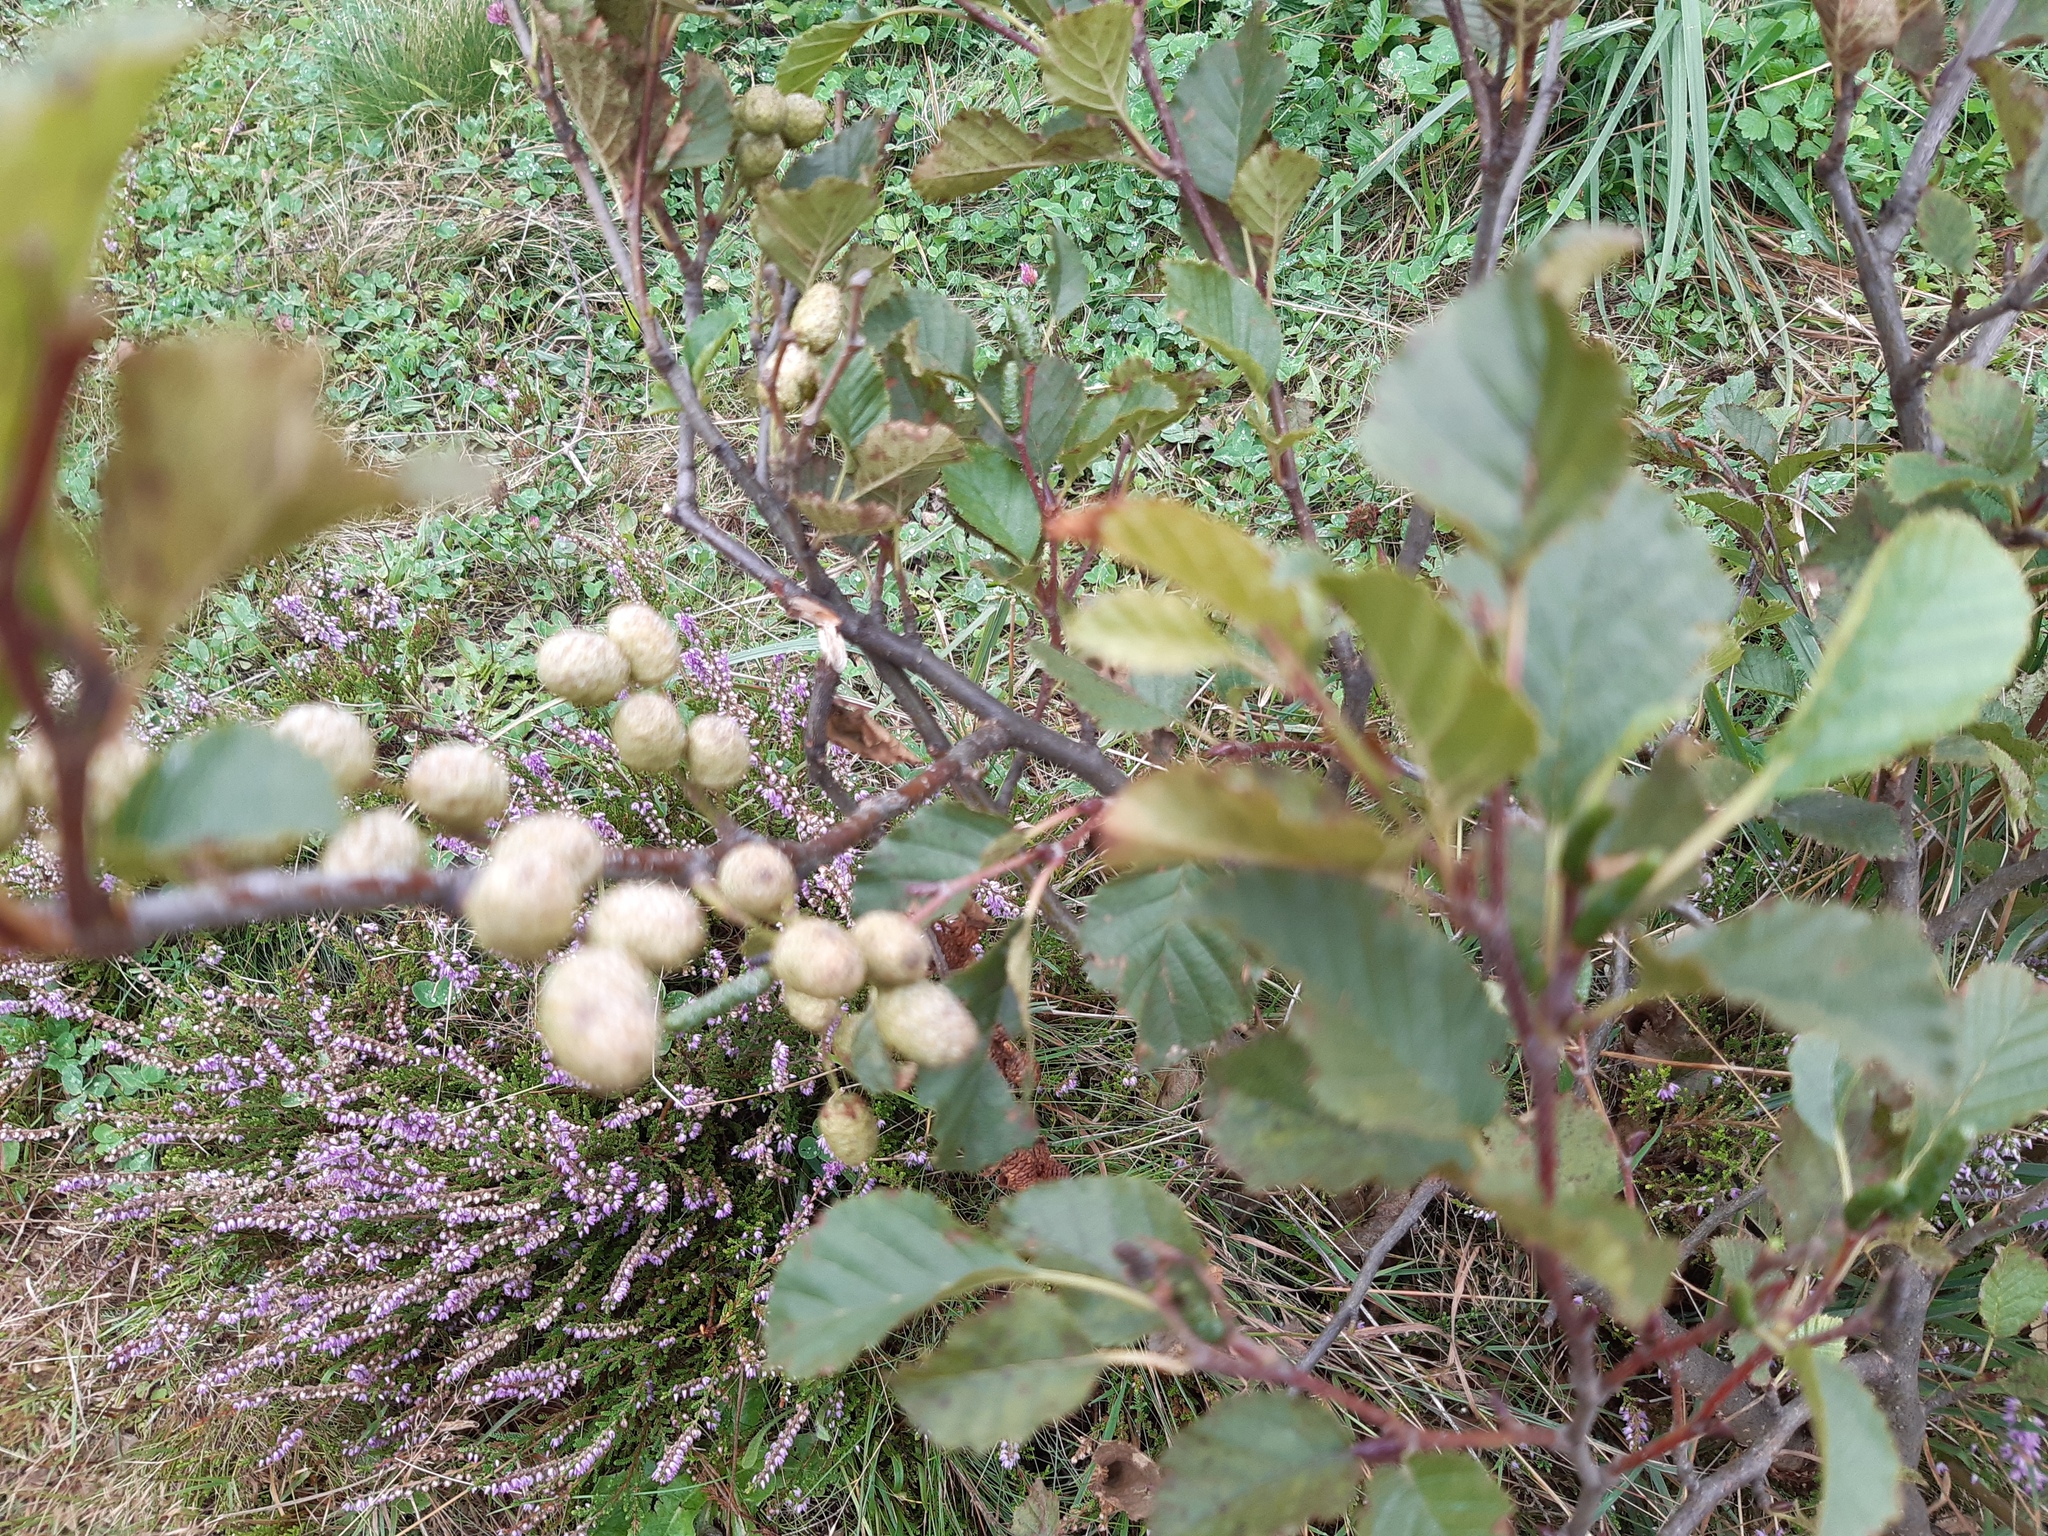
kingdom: Plantae
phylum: Tracheophyta
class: Magnoliopsida
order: Fagales
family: Betulaceae
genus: Alnus
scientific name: Alnus alnobetula
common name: Green alder
